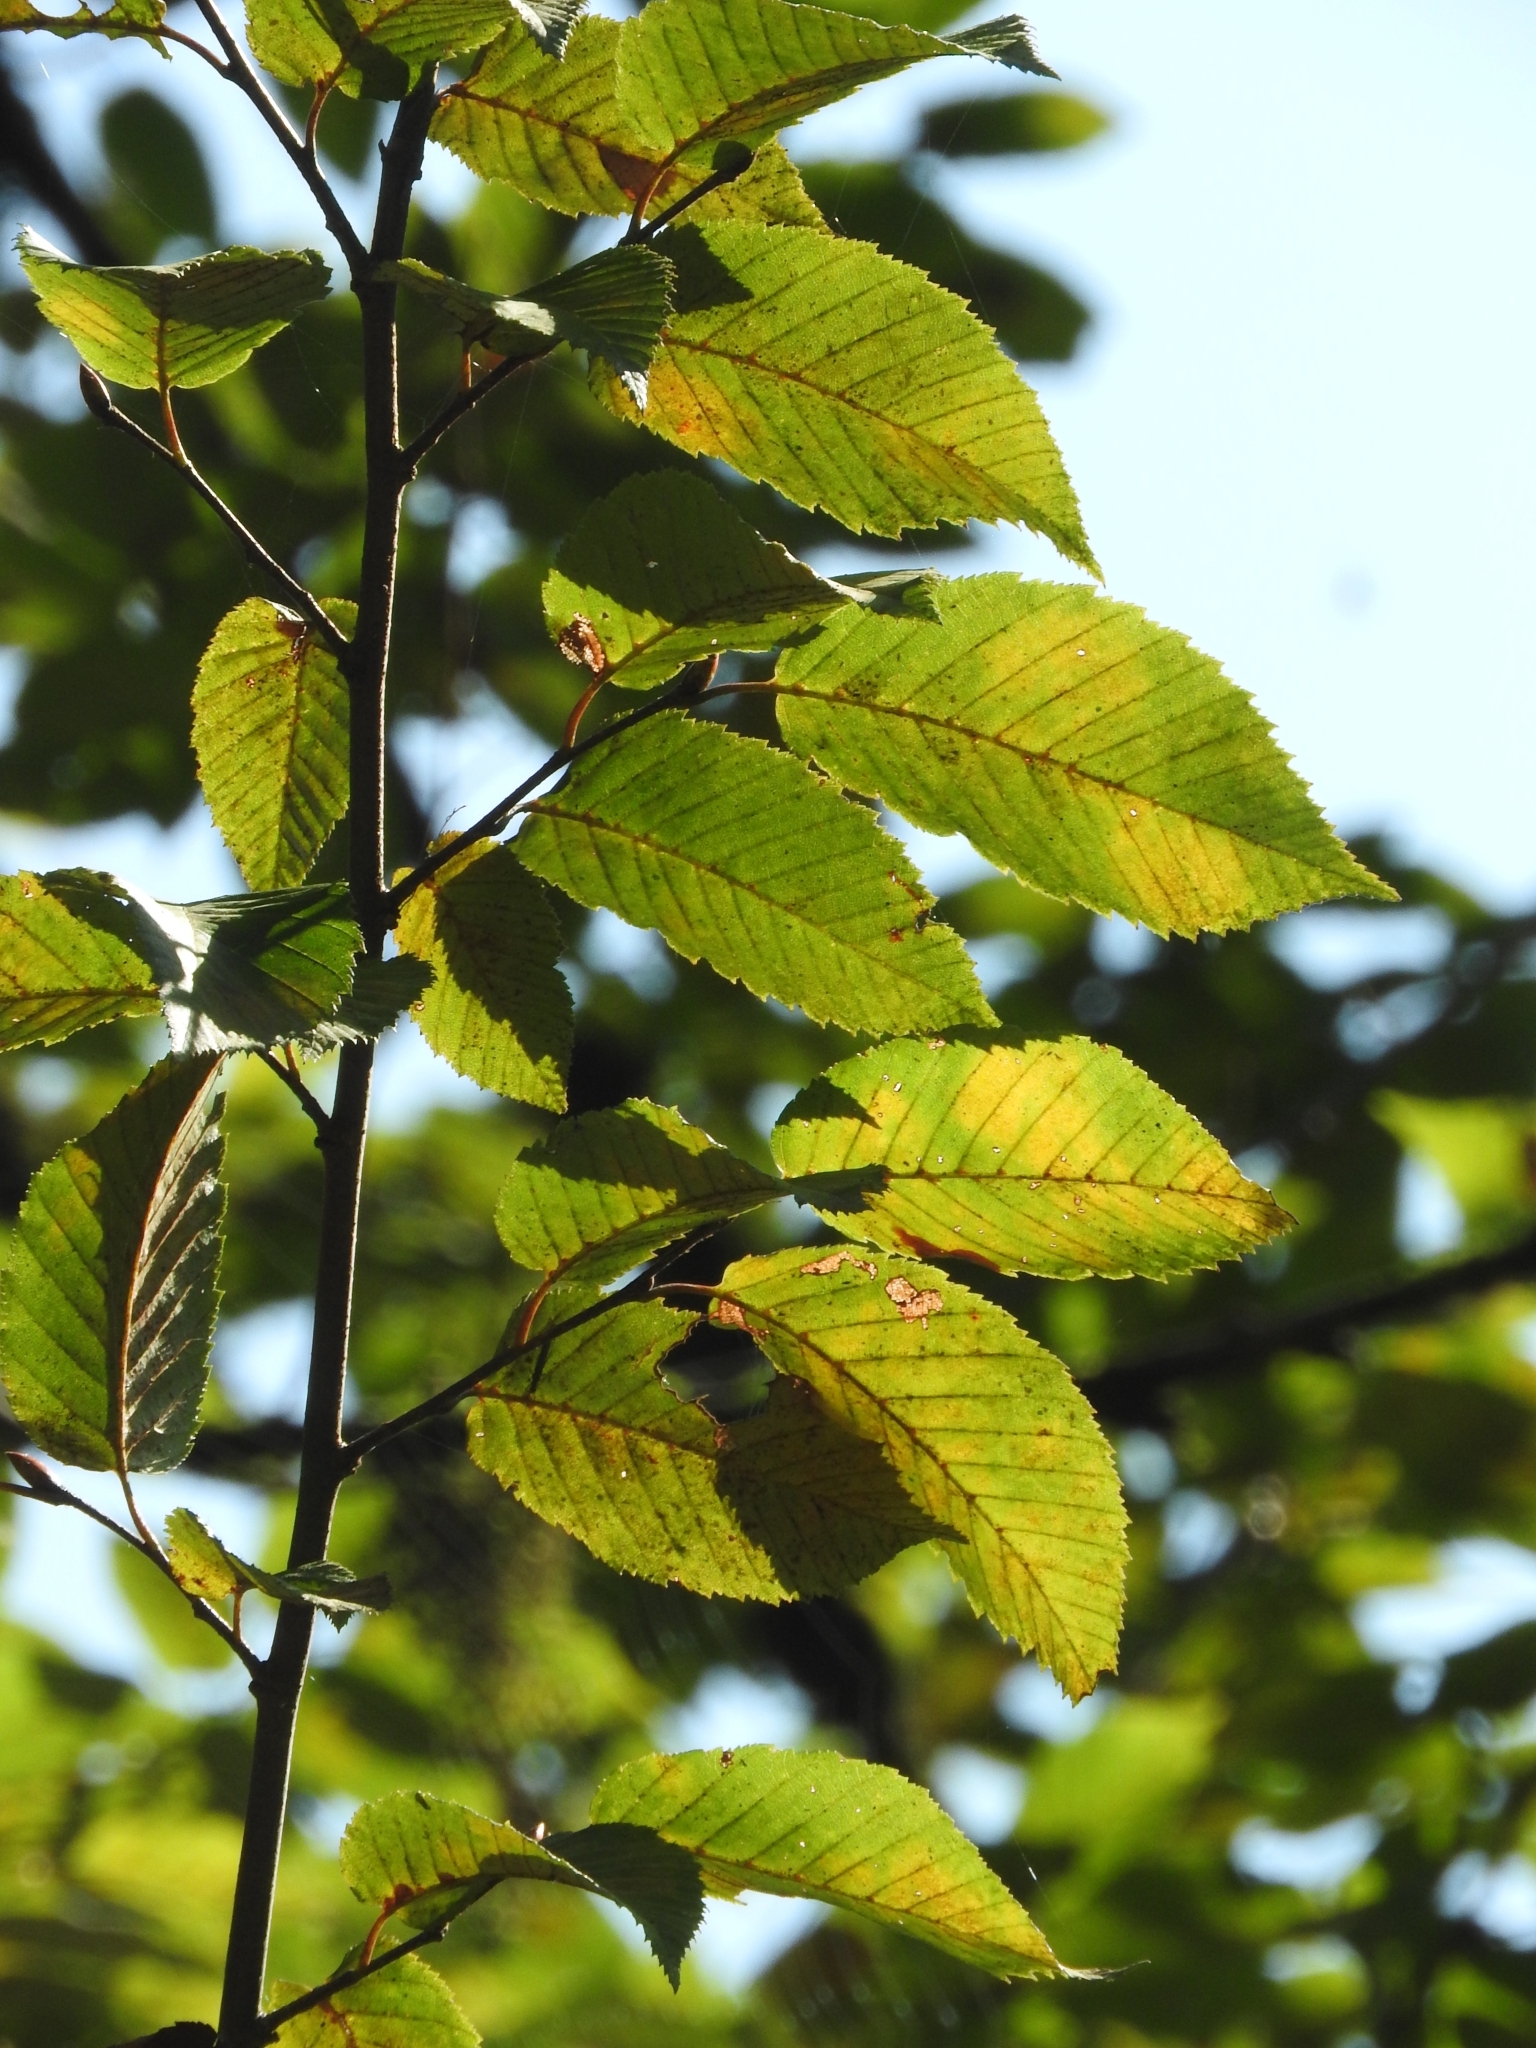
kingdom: Plantae
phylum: Tracheophyta
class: Magnoliopsida
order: Fagales
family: Betulaceae
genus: Carpinus
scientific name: Carpinus betulus
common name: Hornbeam
